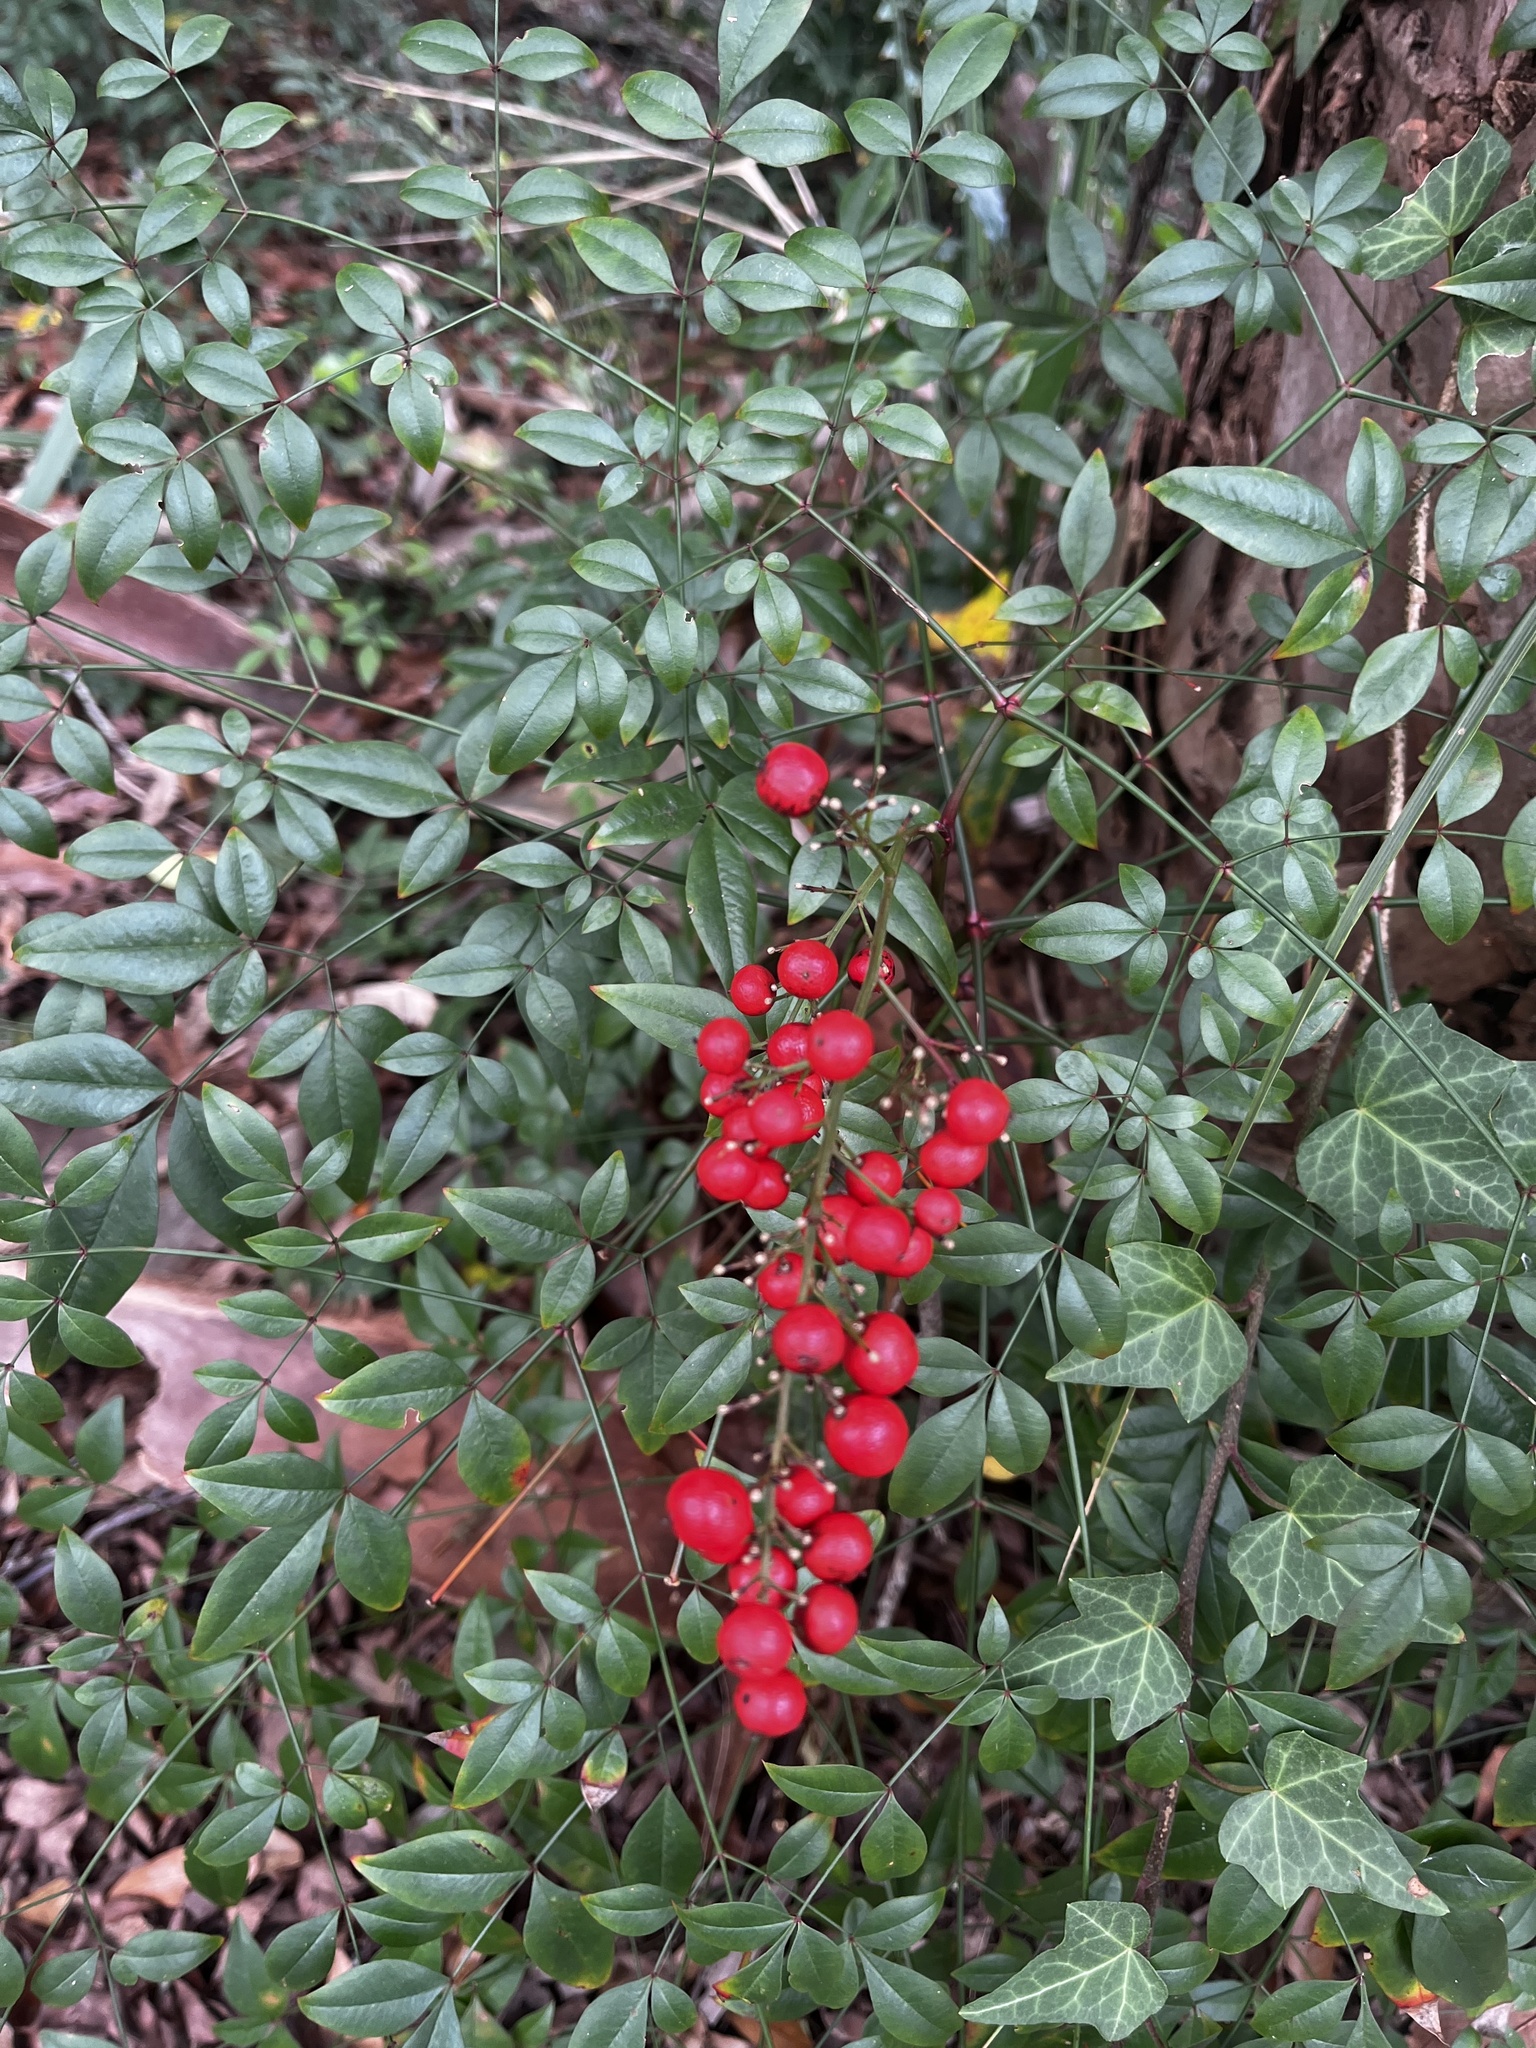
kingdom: Plantae
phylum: Tracheophyta
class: Magnoliopsida
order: Ranunculales
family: Berberidaceae
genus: Nandina
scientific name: Nandina domestica
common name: Sacred bamboo
